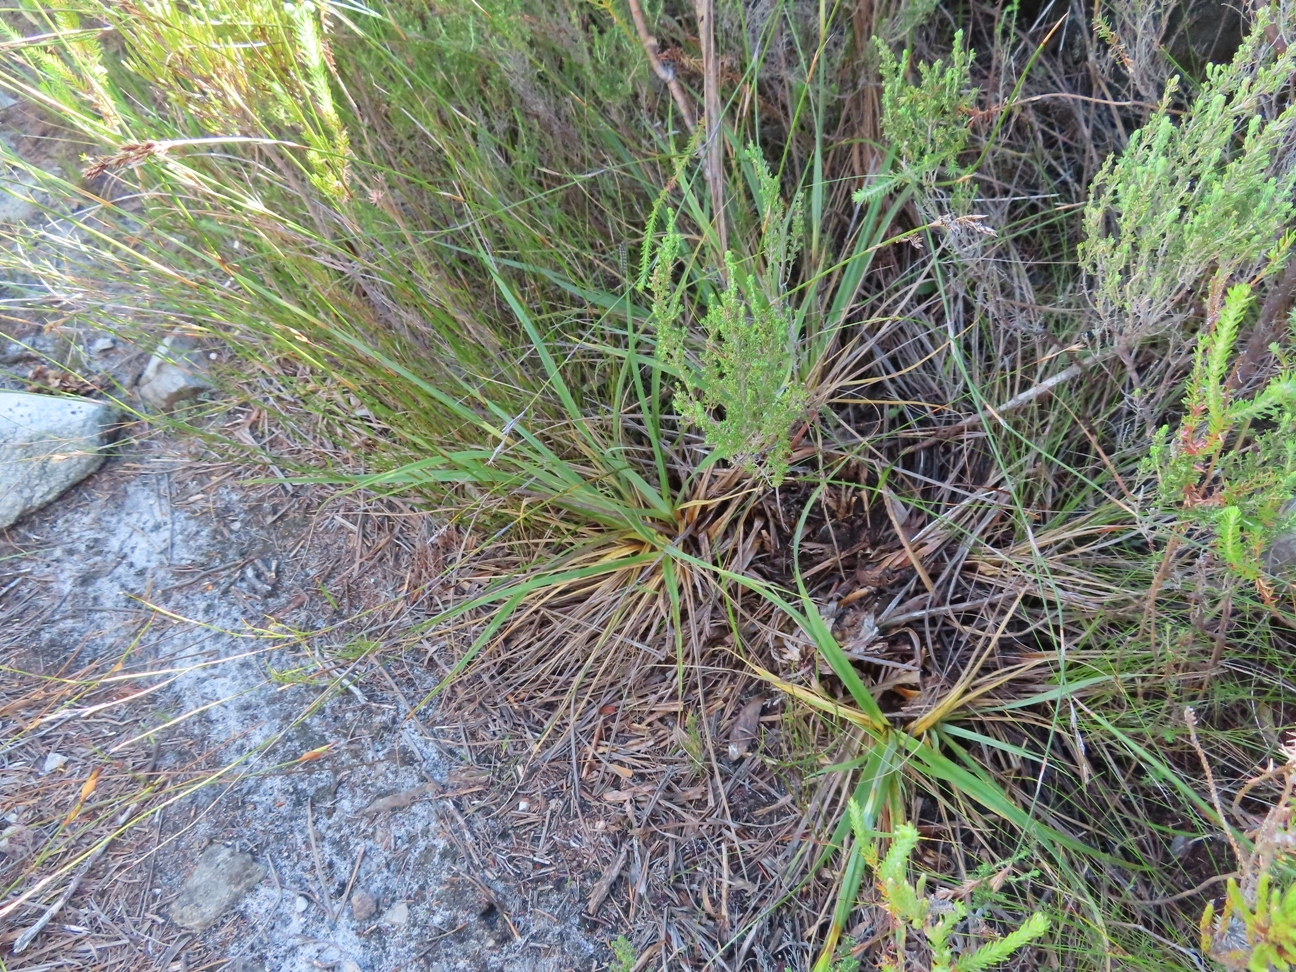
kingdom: Plantae
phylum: Tracheophyta
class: Liliopsida
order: Poales
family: Cyperaceae
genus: Tetraria
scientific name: Tetraria eximia
